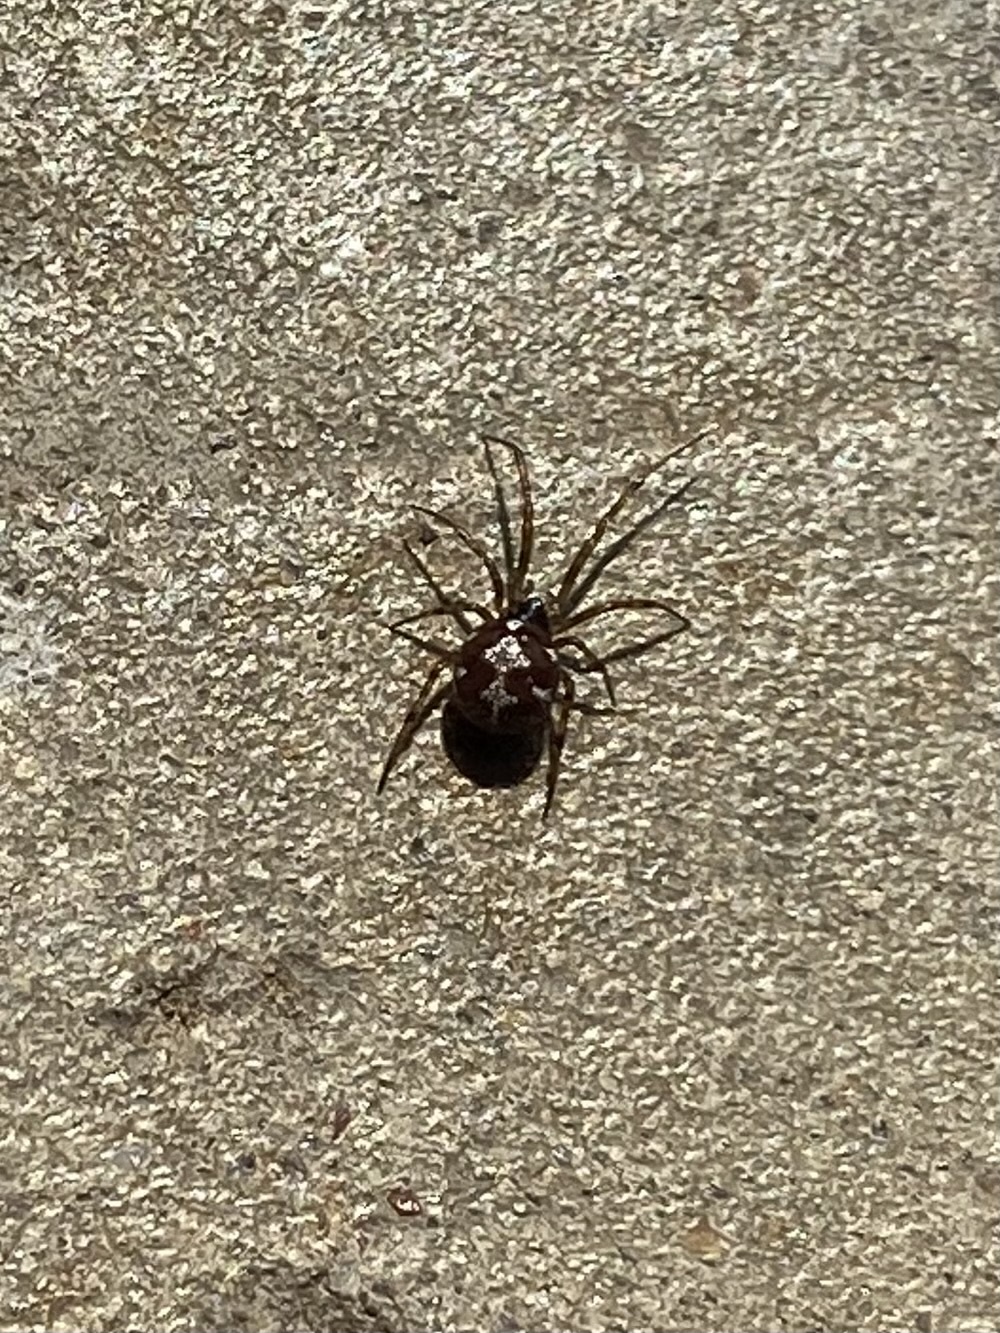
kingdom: Animalia
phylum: Arthropoda
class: Arachnida
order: Araneae
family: Theridiidae
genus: Steatoda
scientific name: Steatoda triangulosa
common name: Triangulate bud spider
